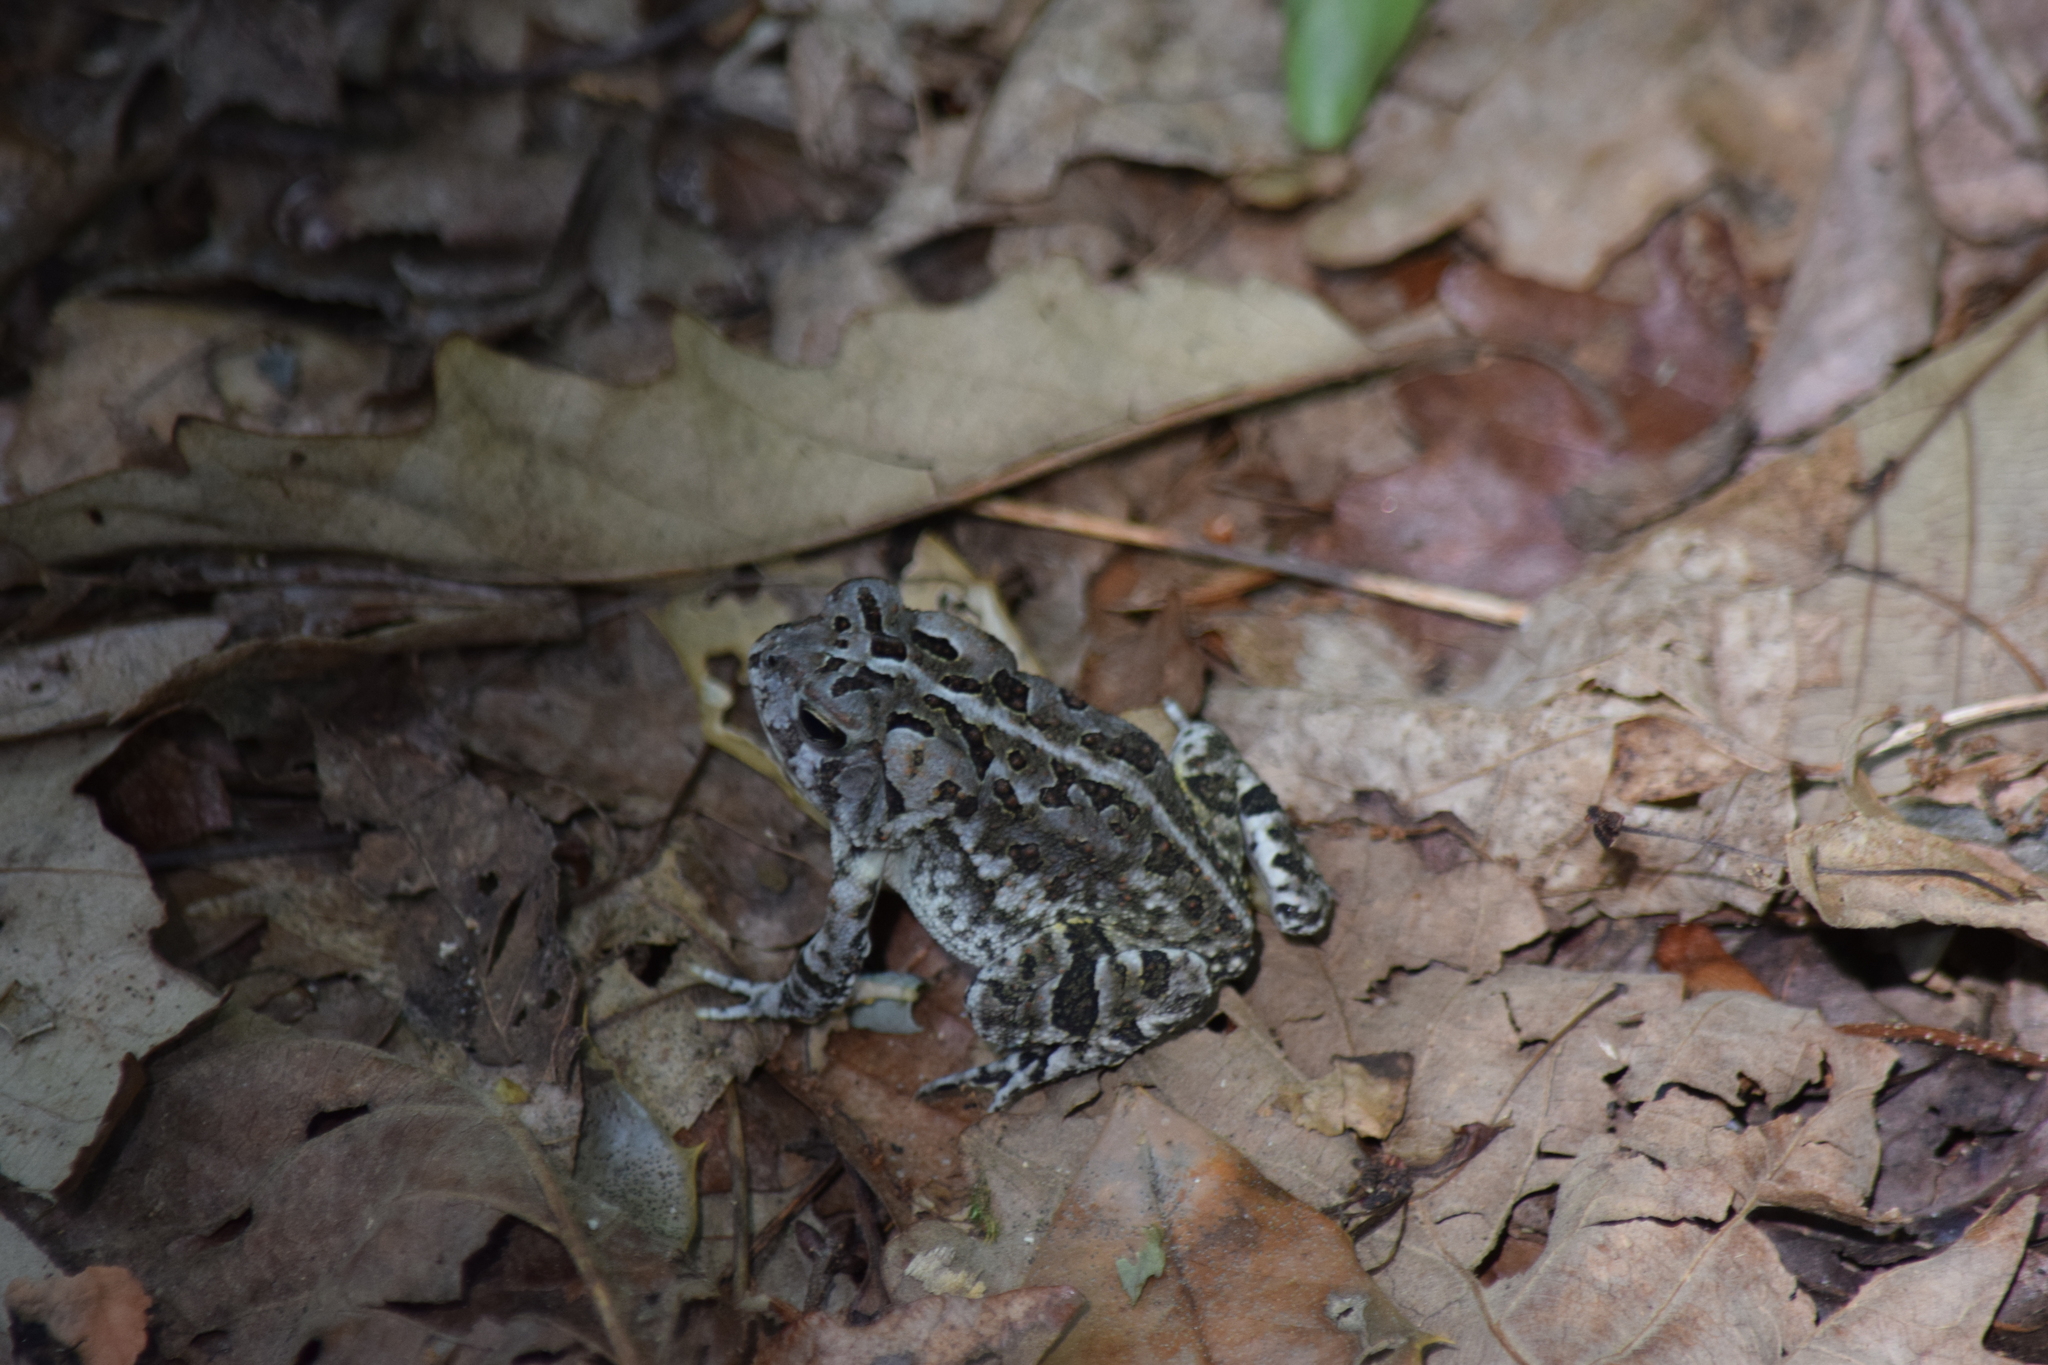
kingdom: Animalia
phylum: Chordata
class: Amphibia
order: Anura
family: Bufonidae
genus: Anaxyrus
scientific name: Anaxyrus fowleri
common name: Fowler's toad
